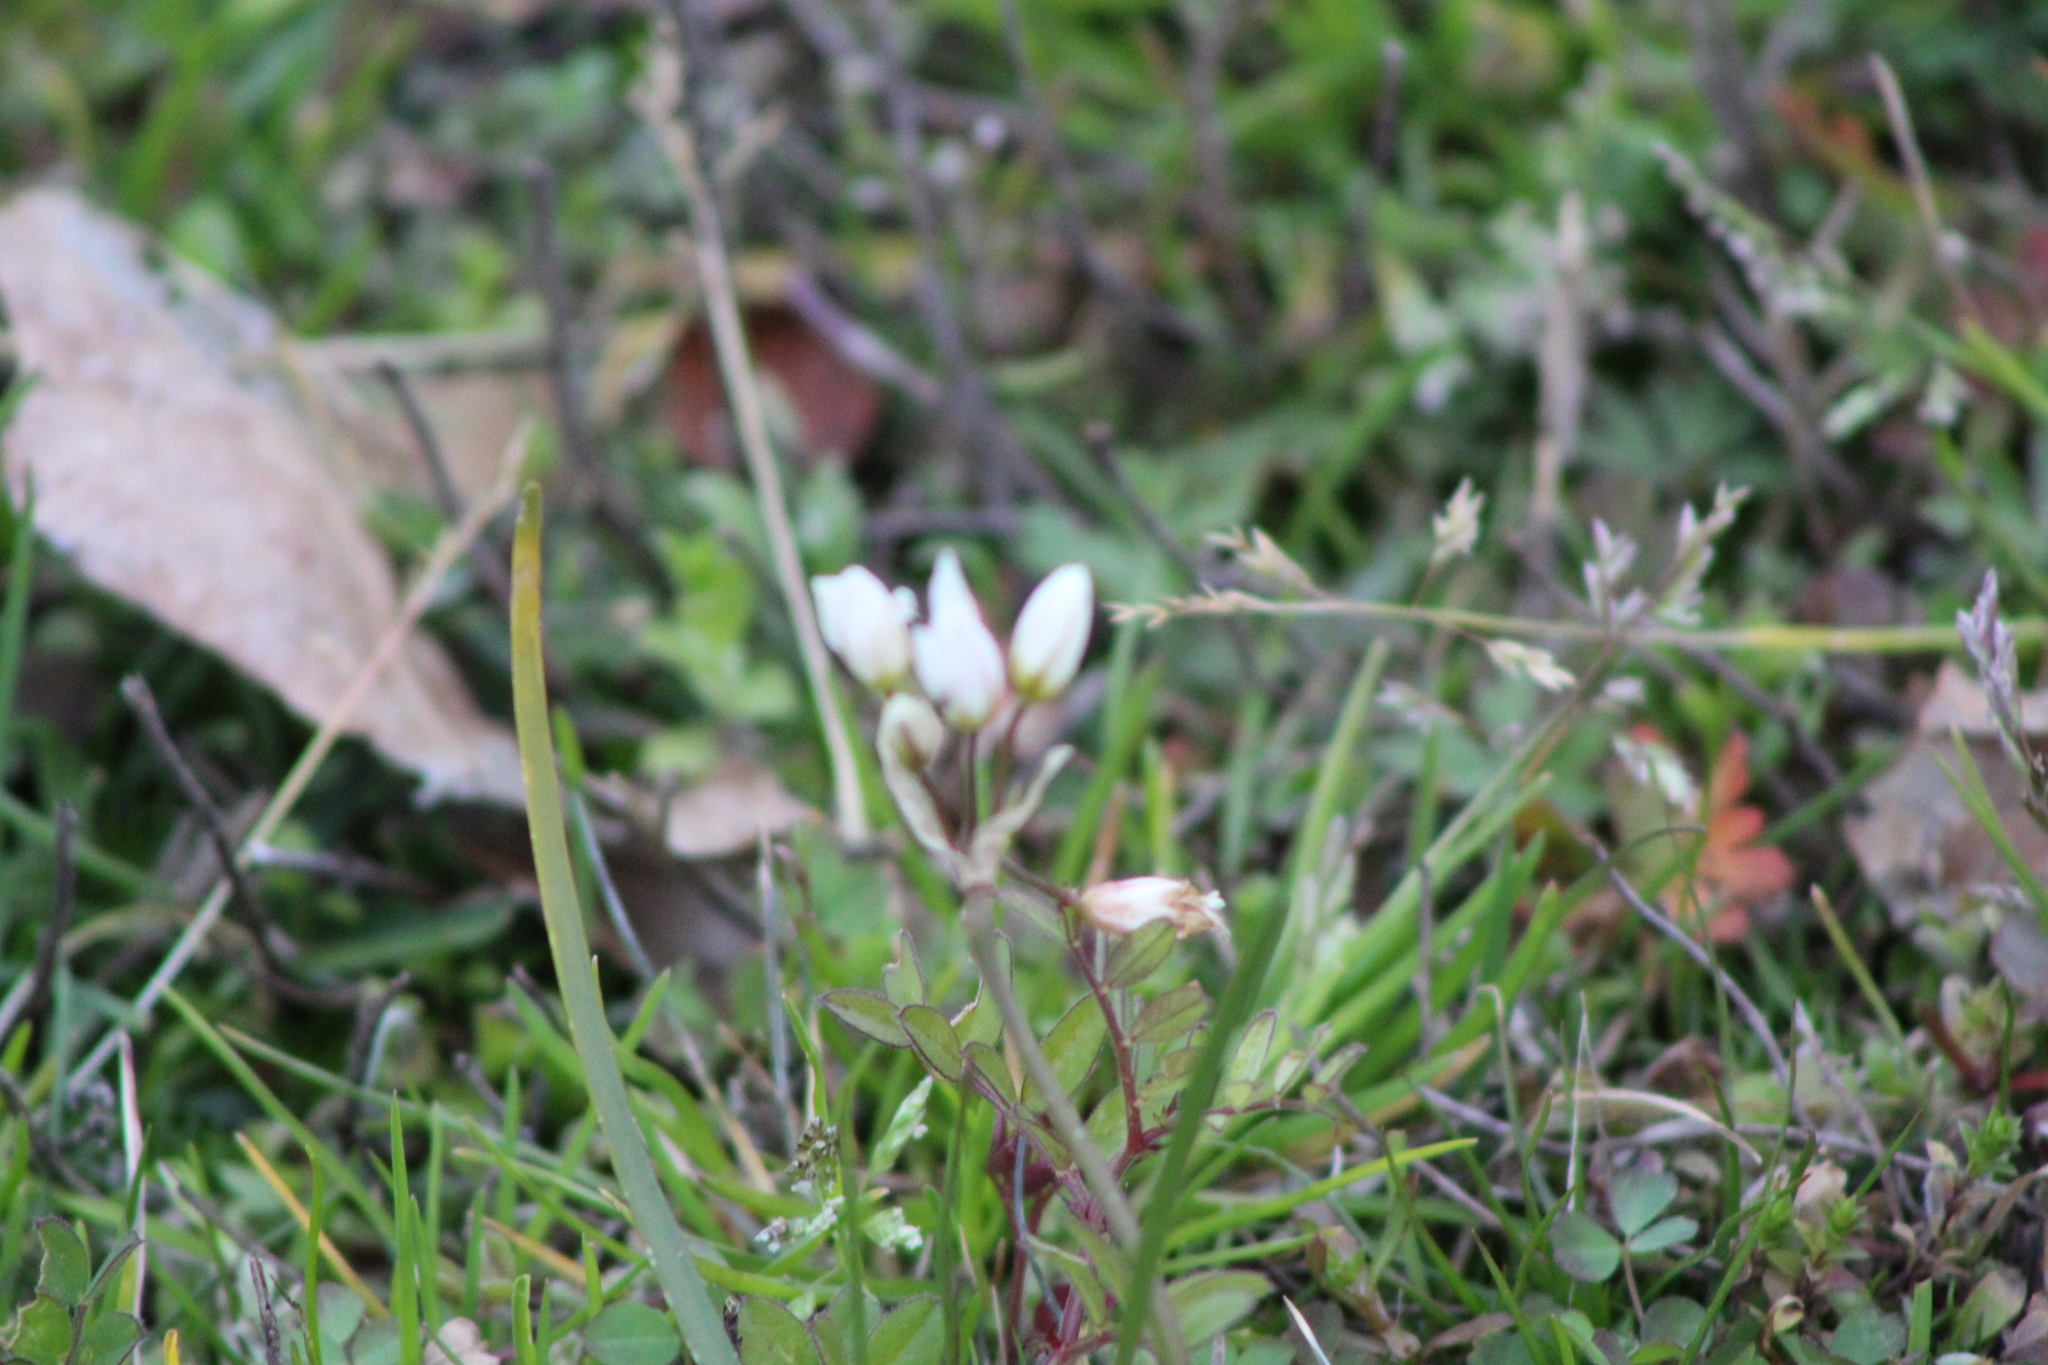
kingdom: Plantae
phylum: Tracheophyta
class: Liliopsida
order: Asparagales
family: Amaryllidaceae
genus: Nothoscordum
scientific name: Nothoscordum bivalve
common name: Crow-poison
